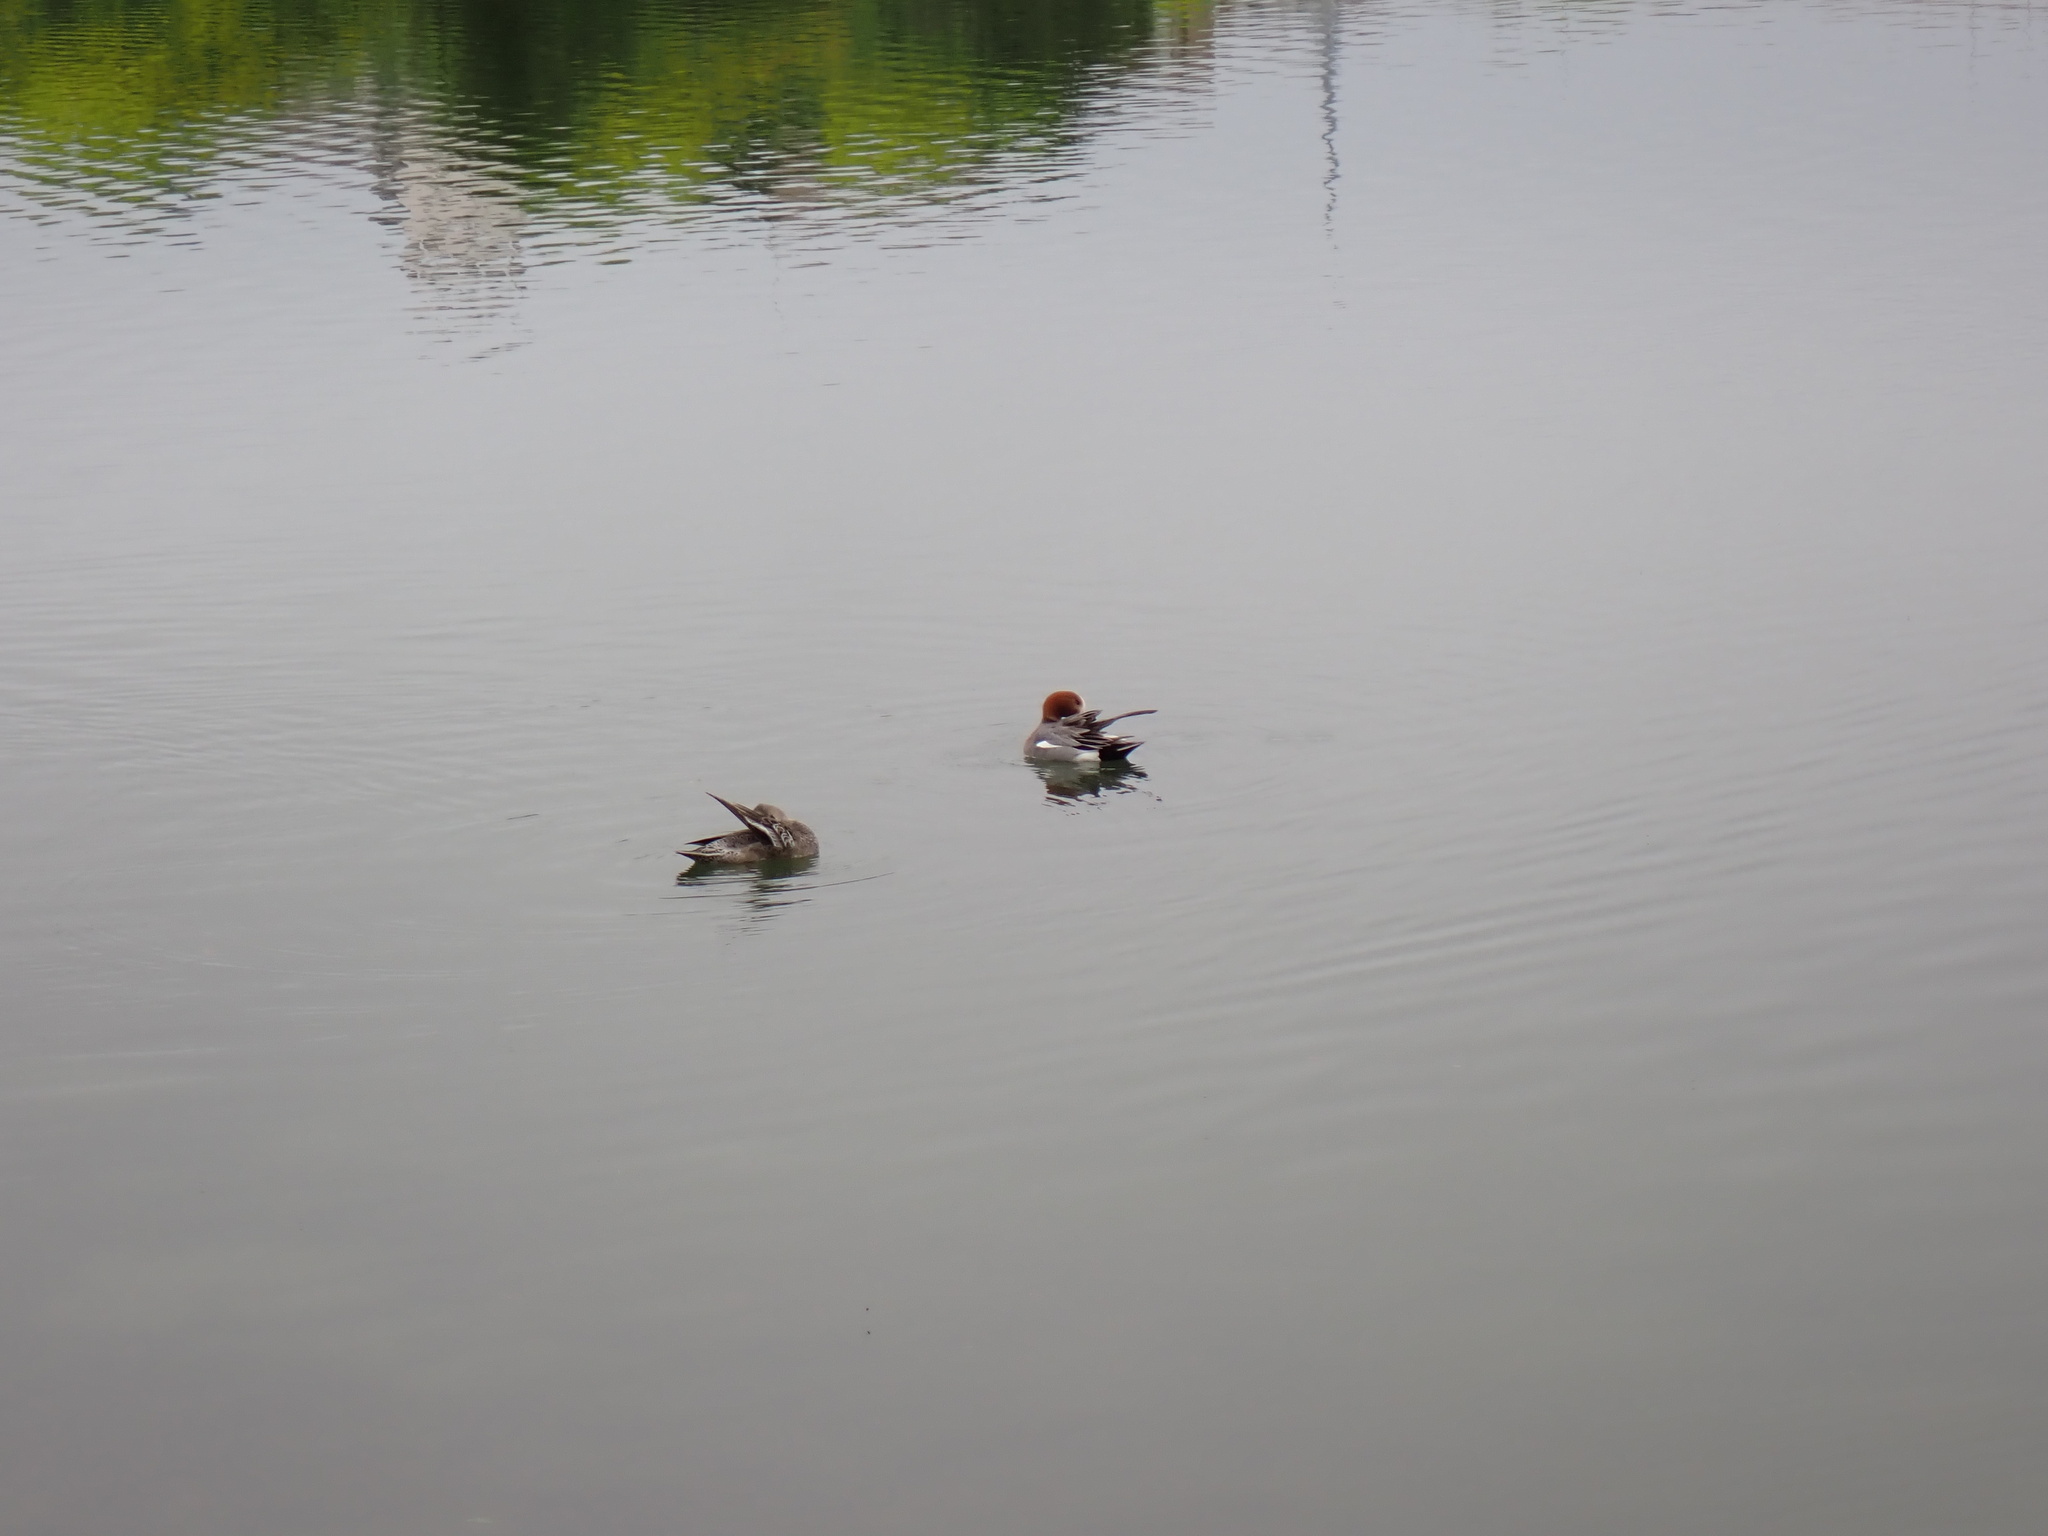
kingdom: Animalia
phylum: Chordata
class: Aves
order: Anseriformes
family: Anatidae
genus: Mareca
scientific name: Mareca penelope
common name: Eurasian wigeon
